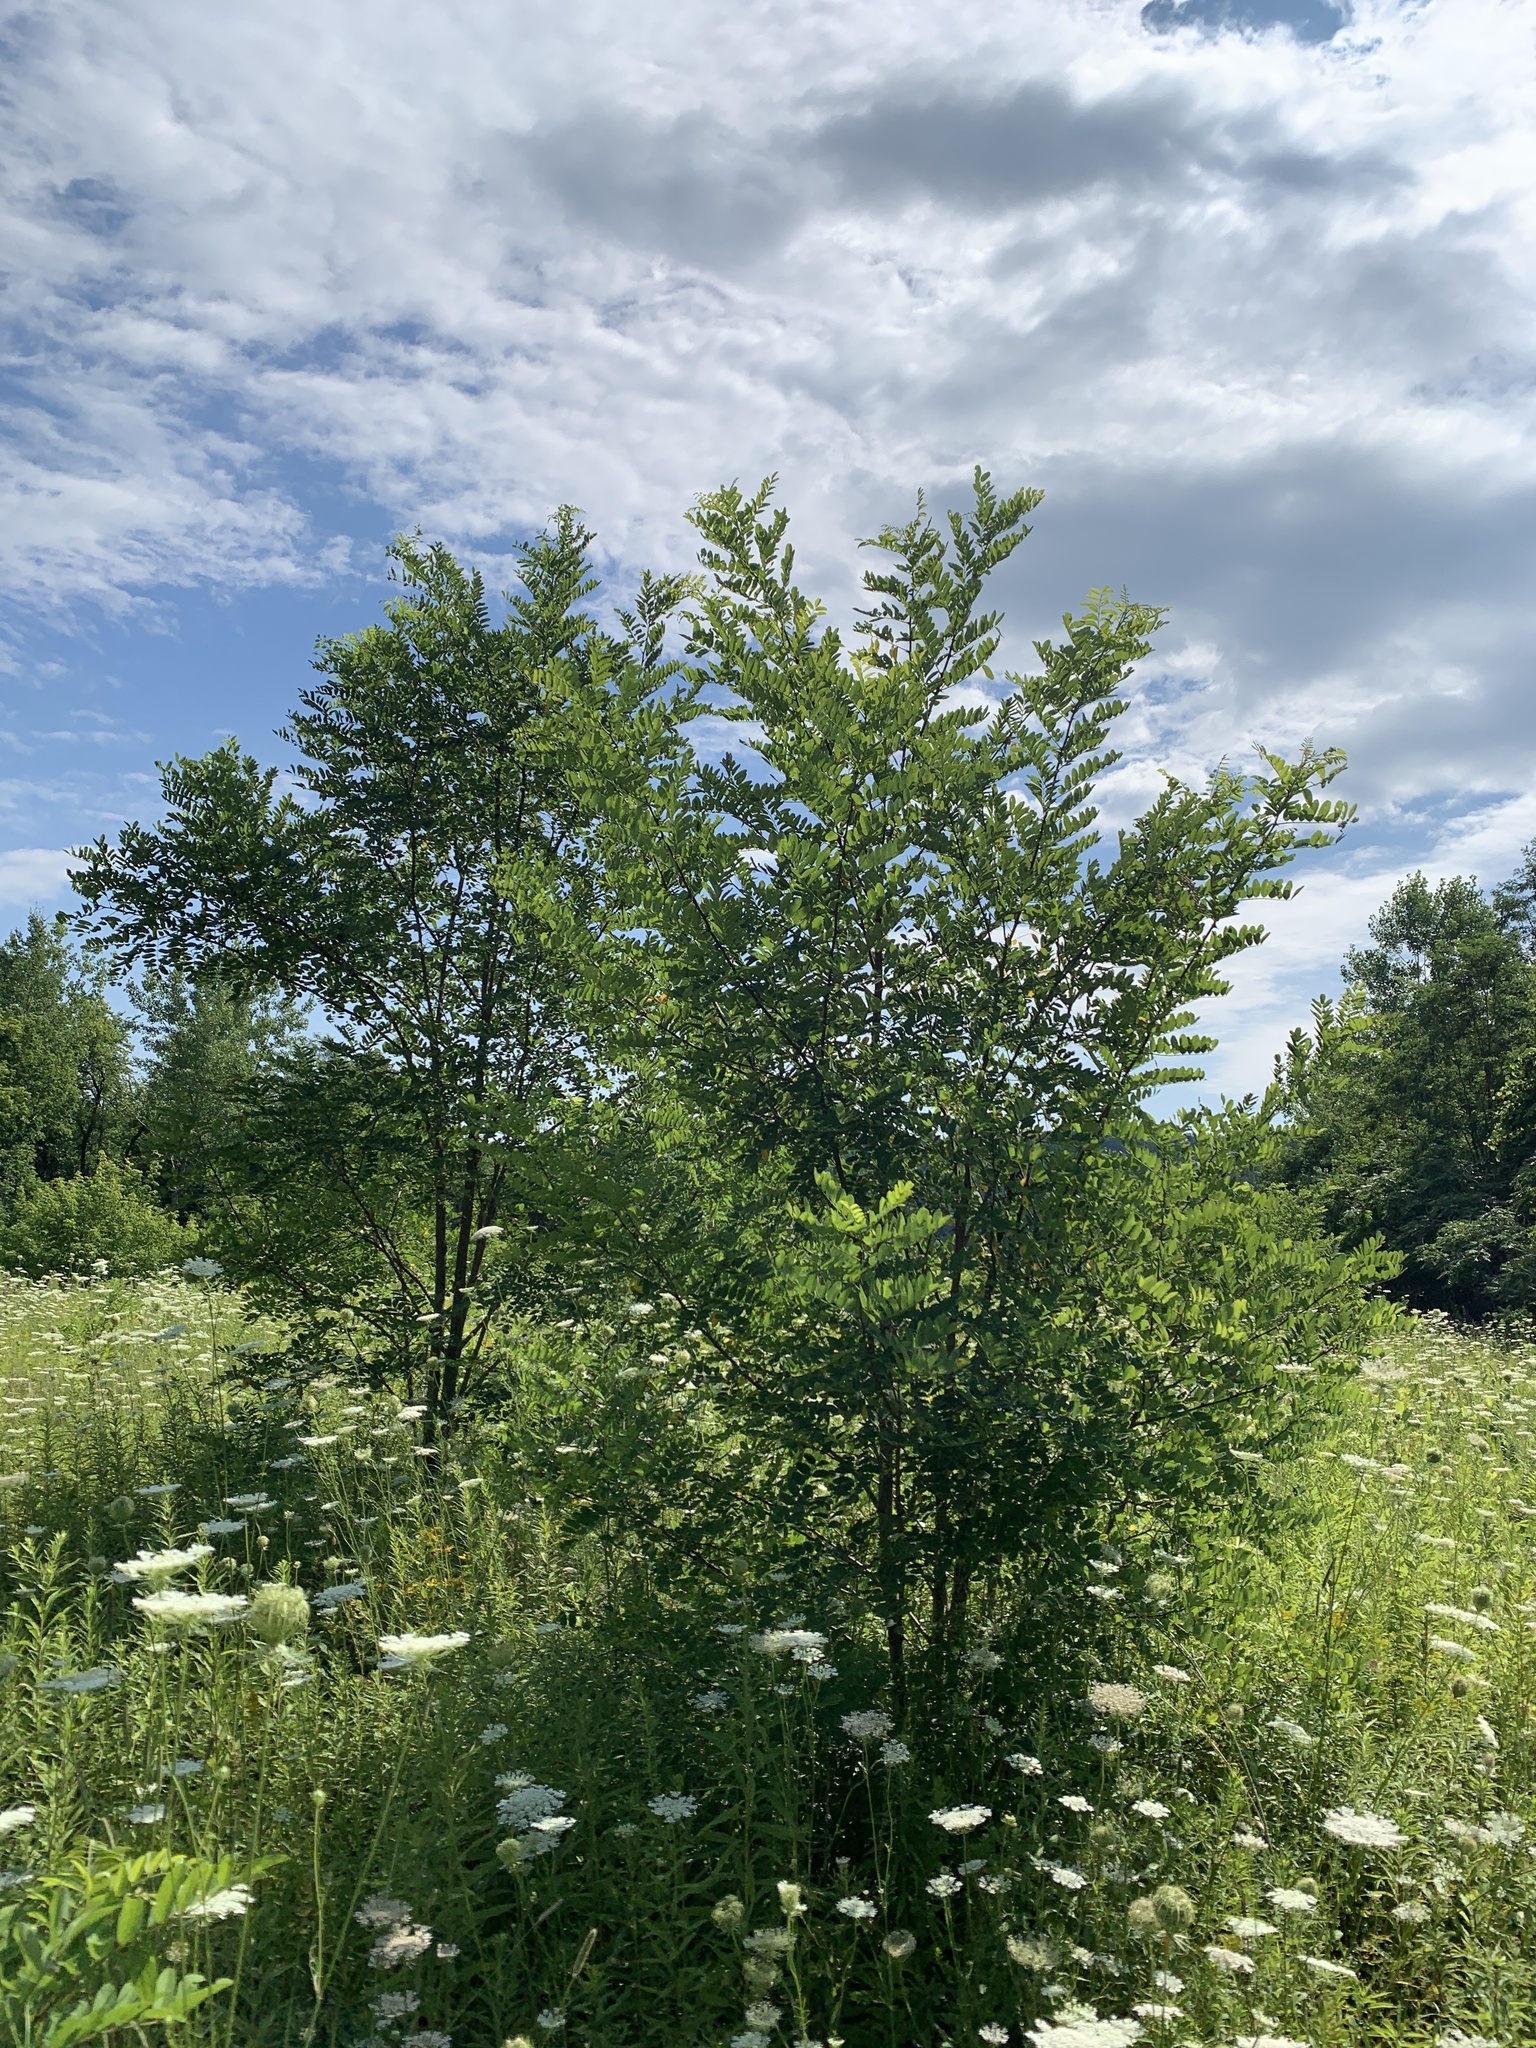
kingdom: Plantae
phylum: Tracheophyta
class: Magnoliopsida
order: Fabales
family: Fabaceae
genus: Robinia
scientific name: Robinia pseudoacacia
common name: Black locust
